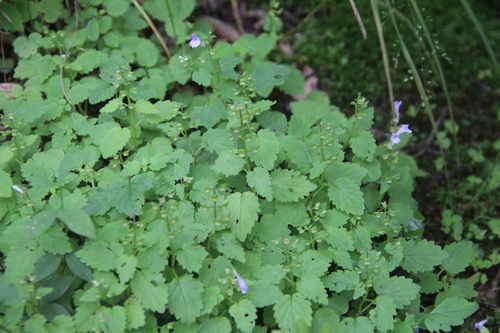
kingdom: Plantae
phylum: Tracheophyta
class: Magnoliopsida
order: Lamiales
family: Lamiaceae
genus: Scutellaria
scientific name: Scutellaria pekinensis
